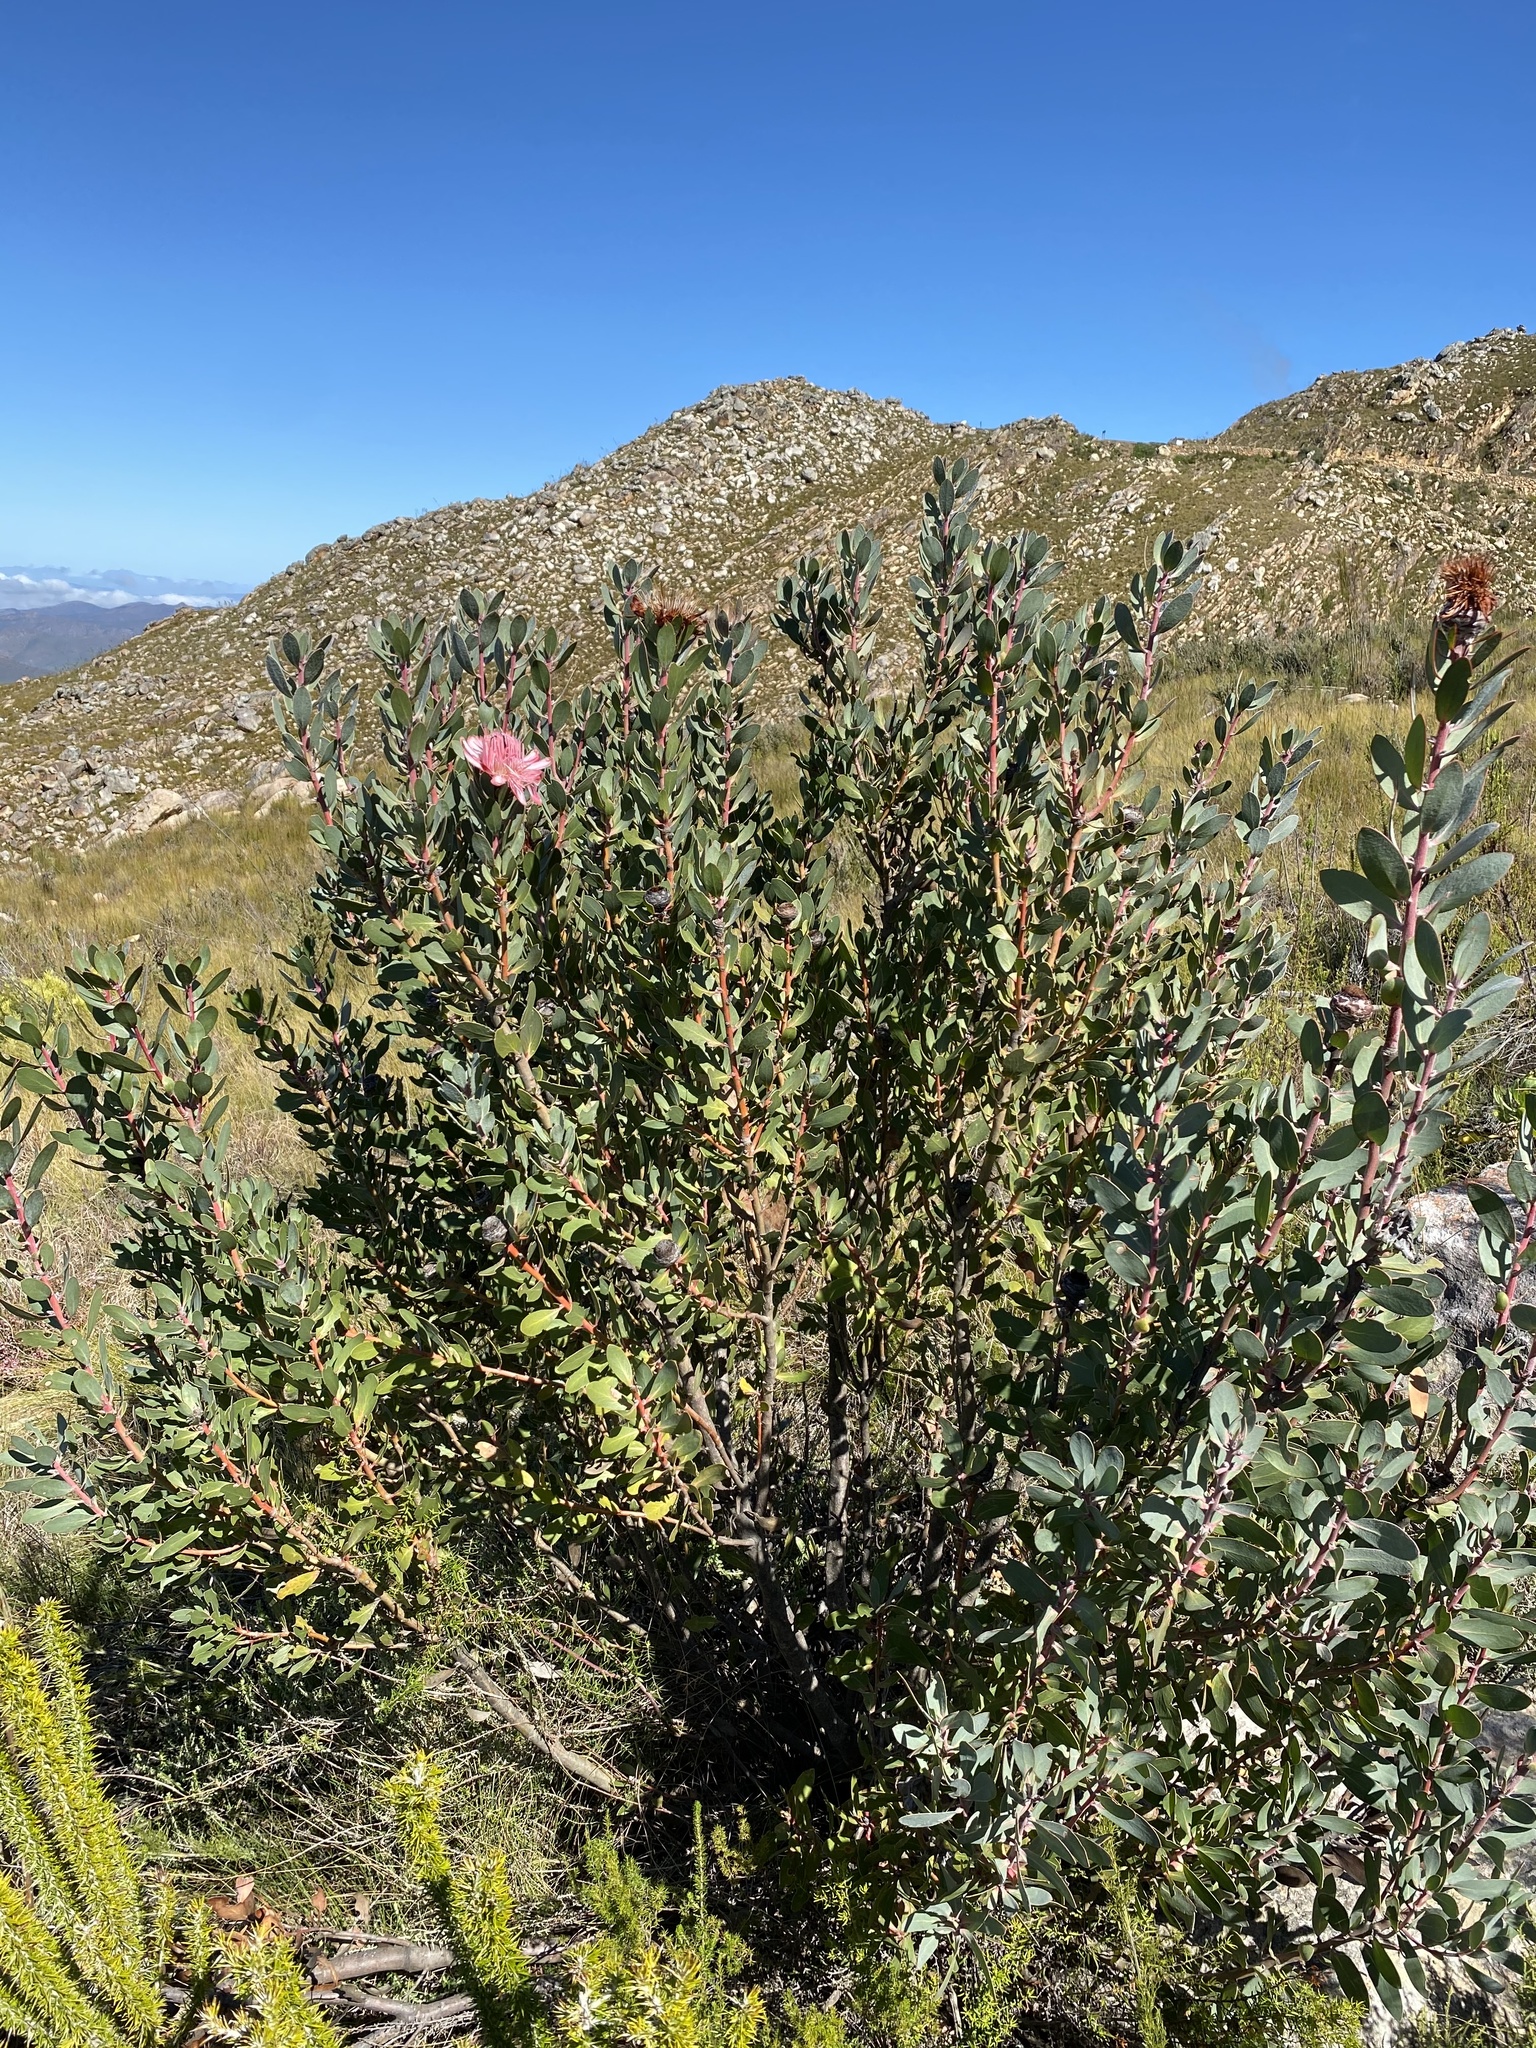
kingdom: Plantae
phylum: Tracheophyta
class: Magnoliopsida
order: Proteales
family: Proteaceae
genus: Protea
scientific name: Protea punctata
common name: Water sugarbush
